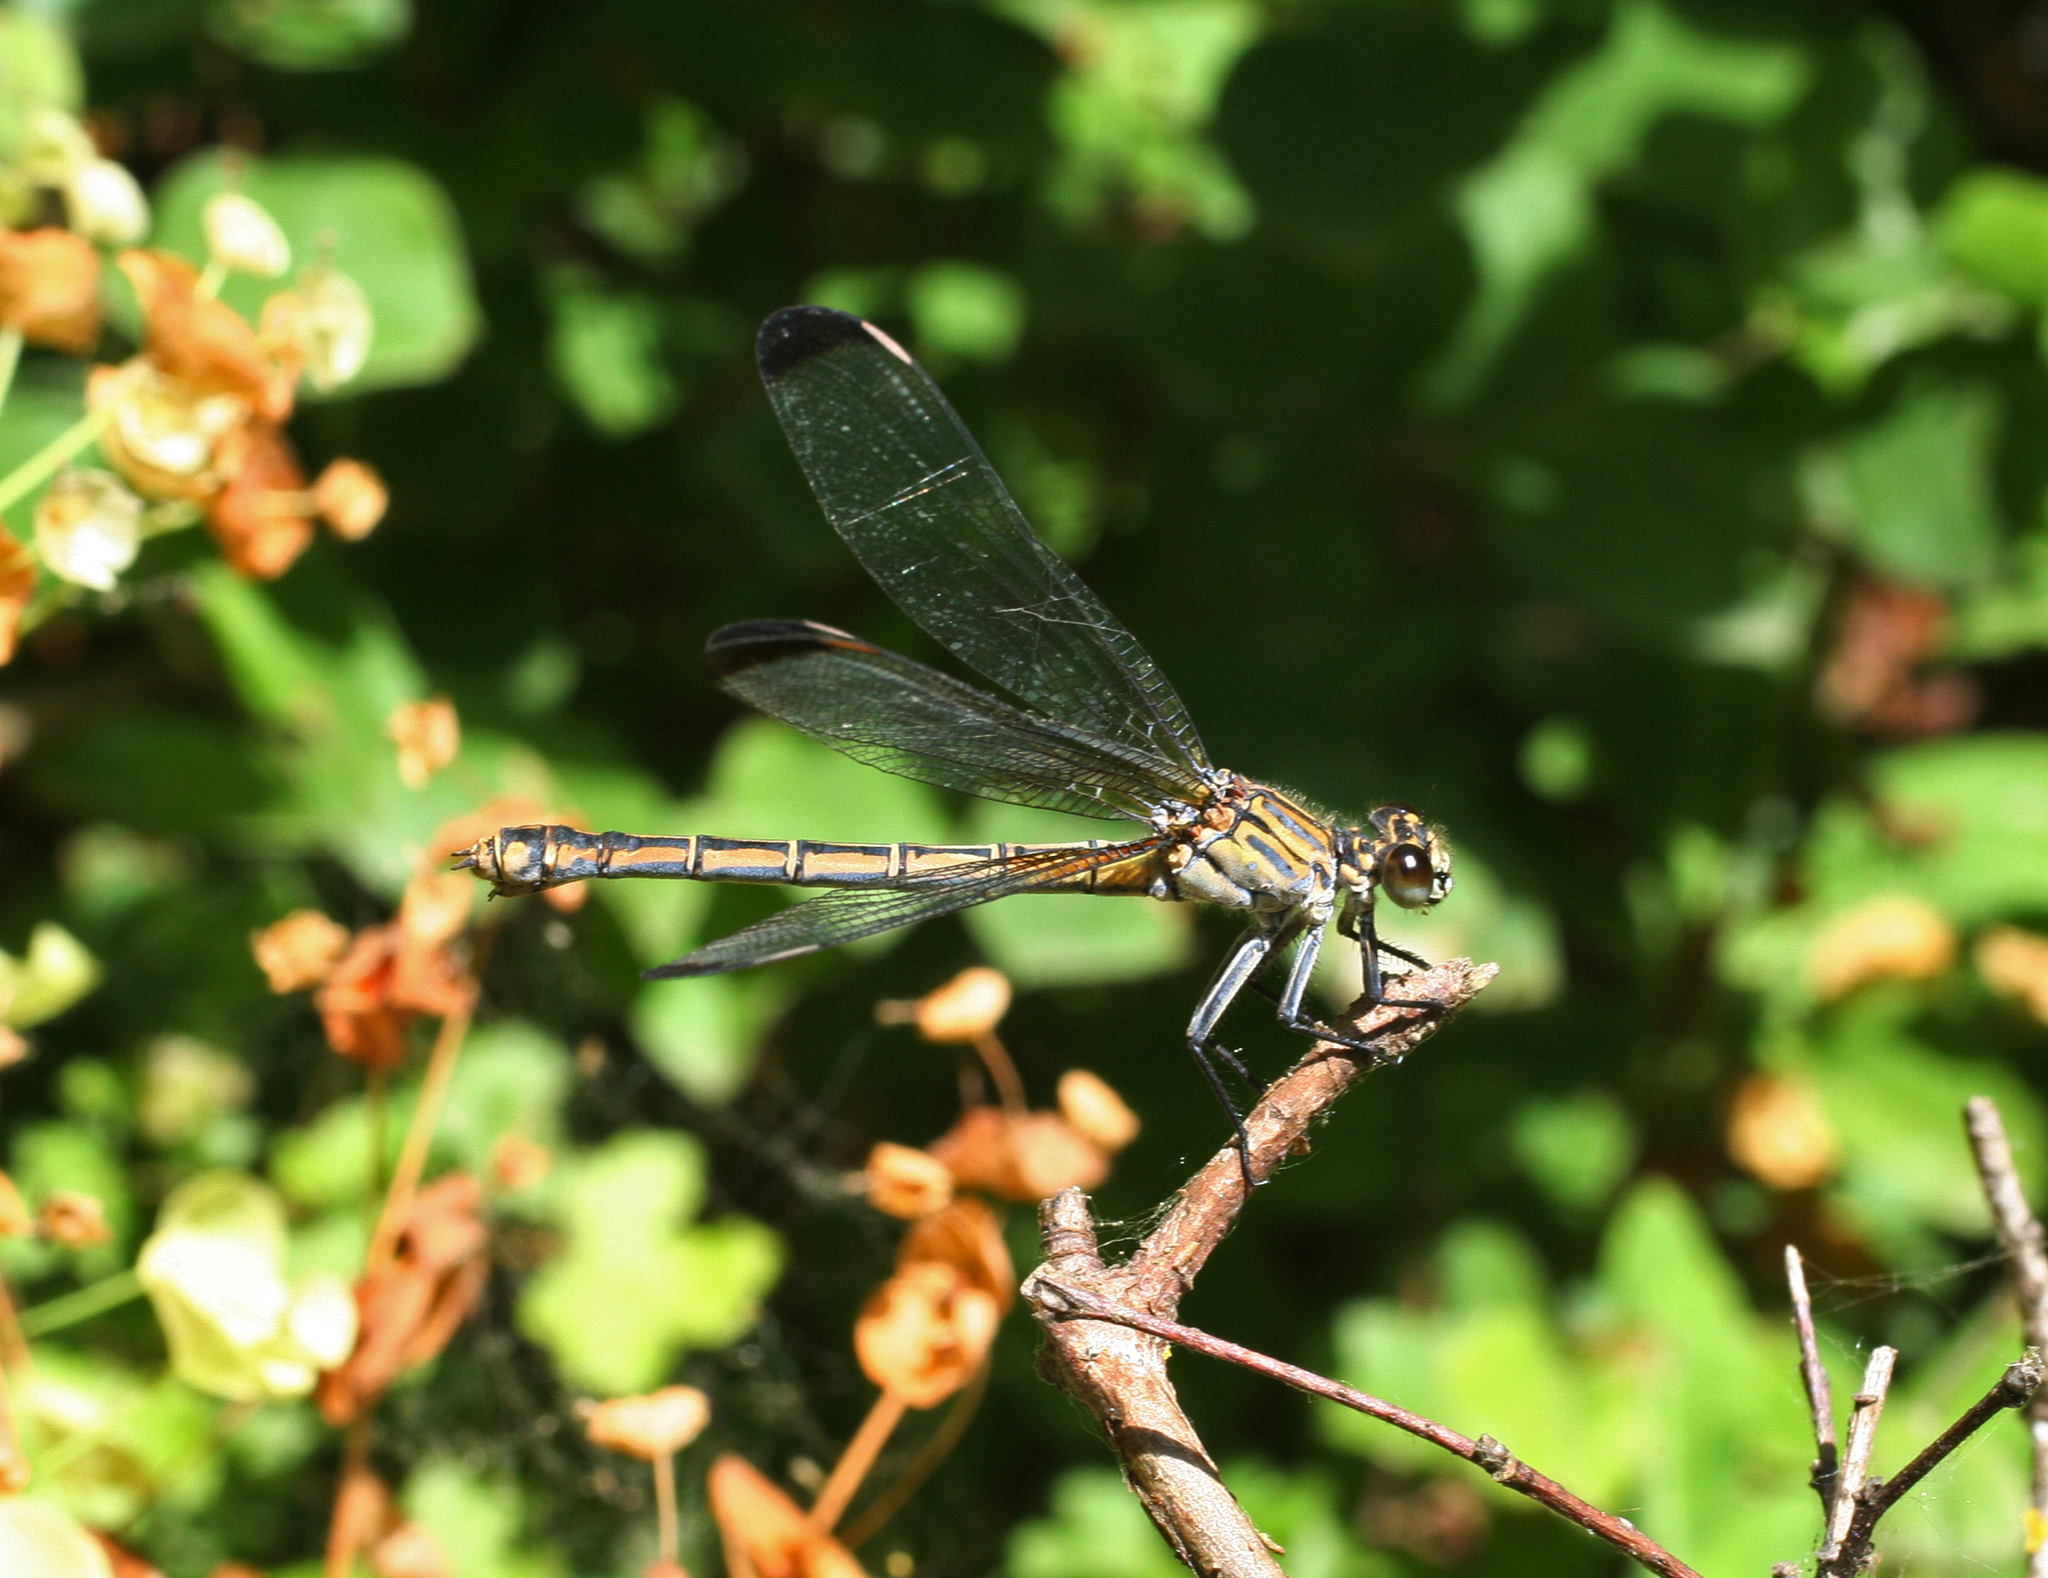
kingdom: Animalia
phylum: Arthropoda
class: Insecta
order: Odonata
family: Euphaeidae
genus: Epallage
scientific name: Epallage fatime
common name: Odalisque
